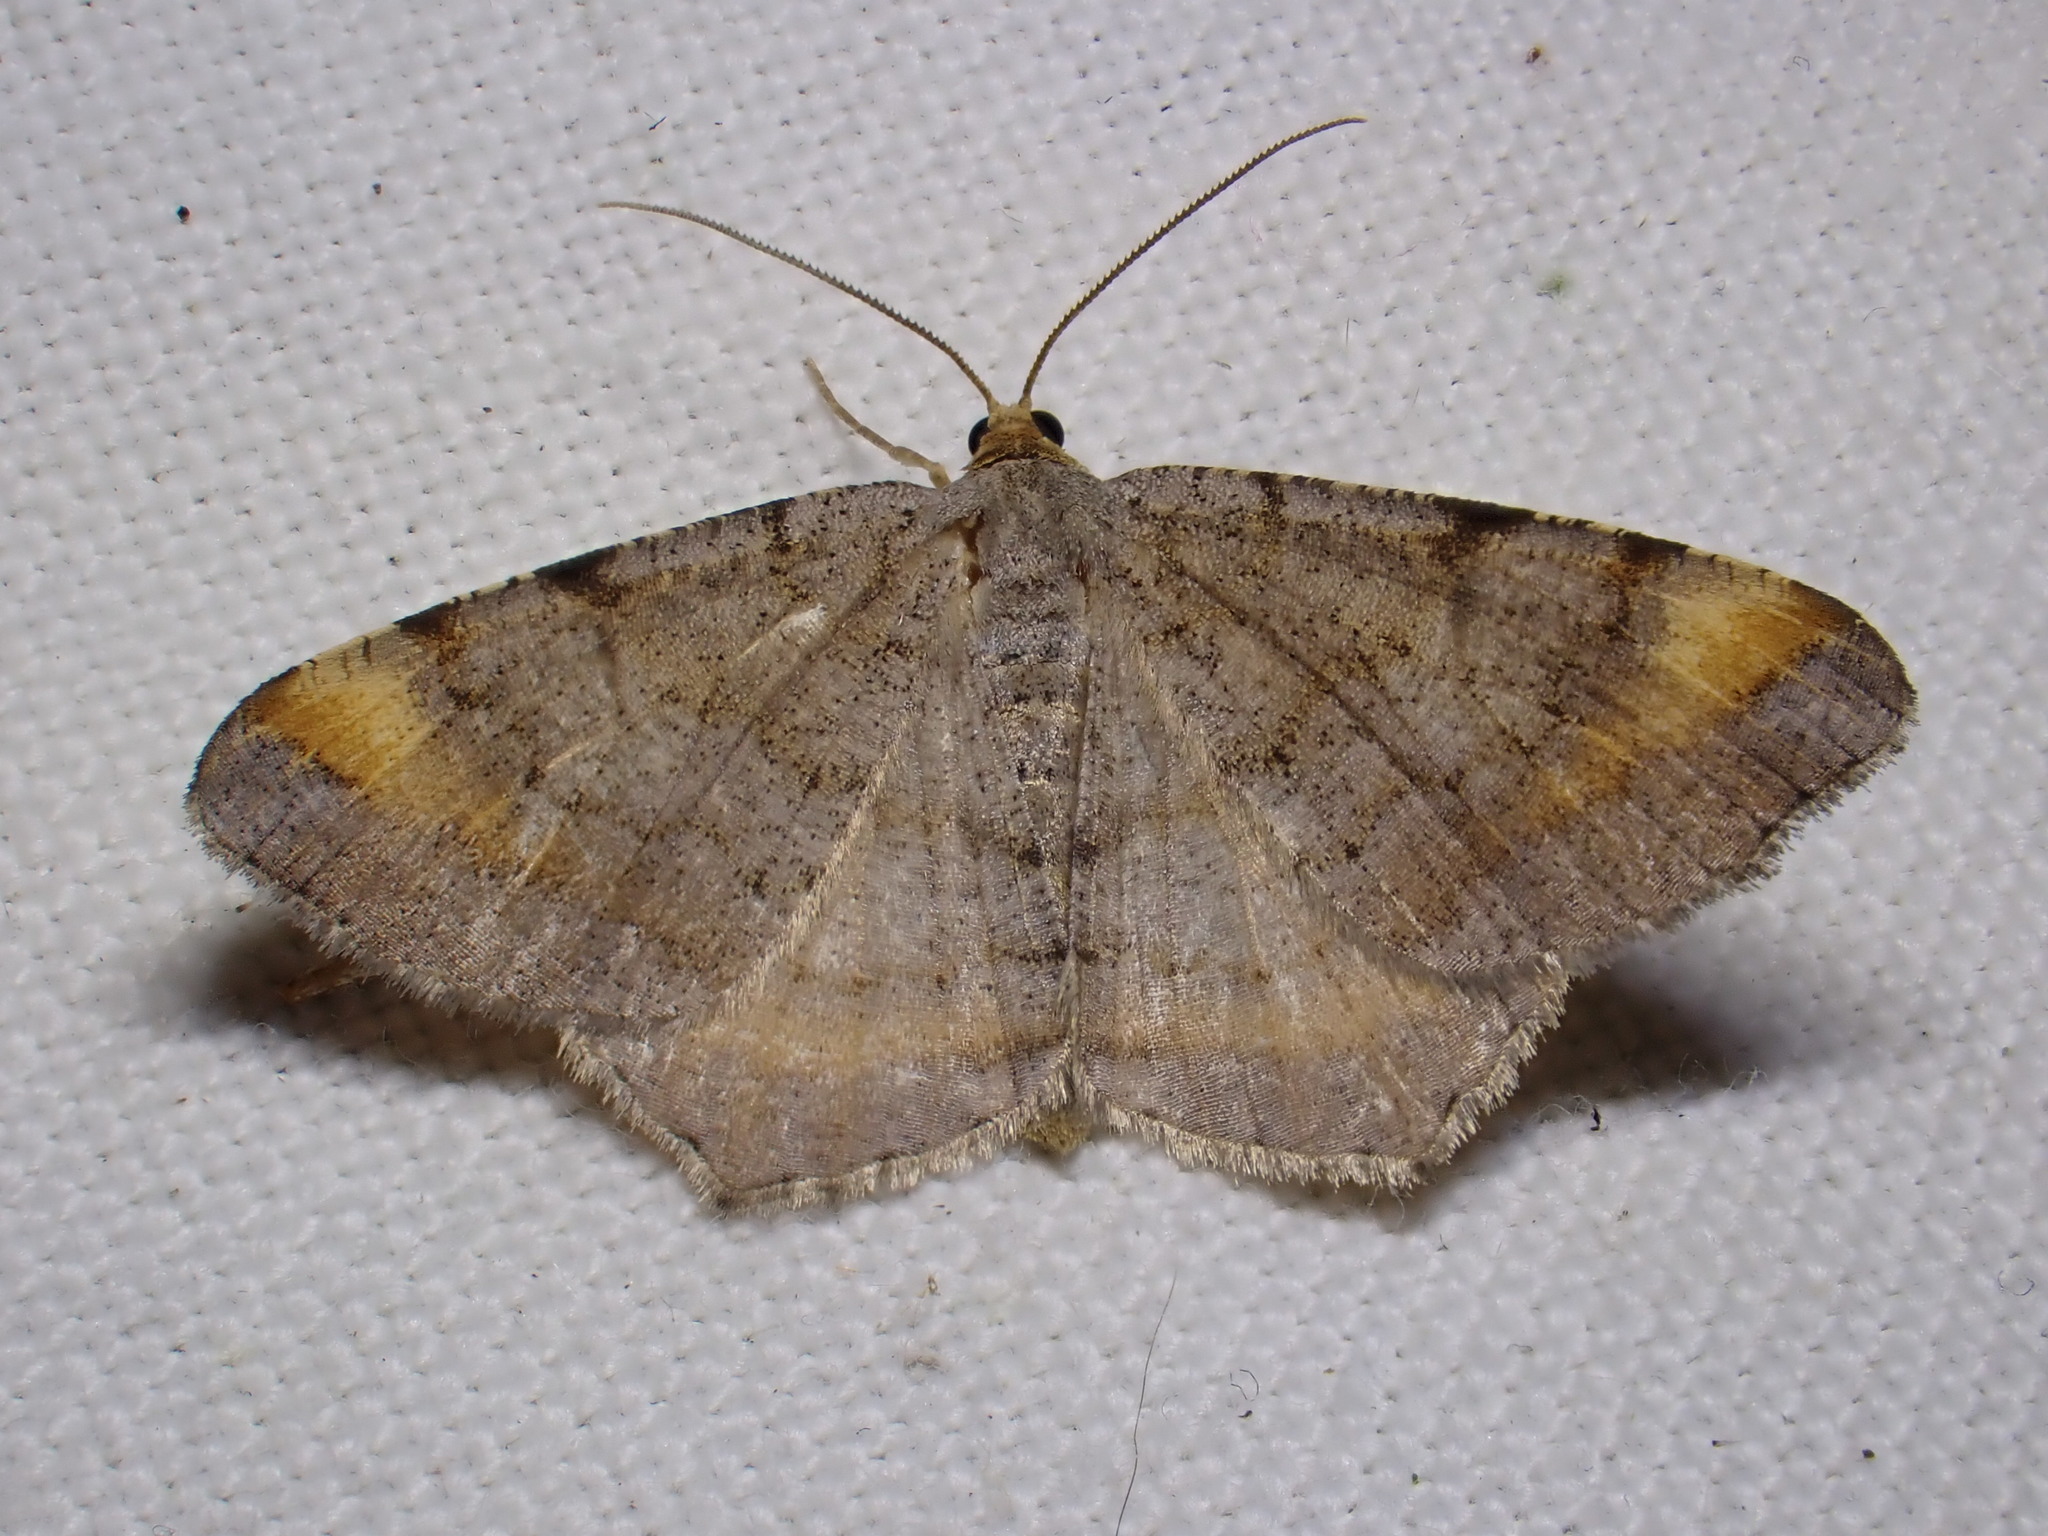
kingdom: Animalia
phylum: Arthropoda
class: Insecta
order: Lepidoptera
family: Geometridae
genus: Macaria
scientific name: Macaria liturata
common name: Tawny-barred angle
